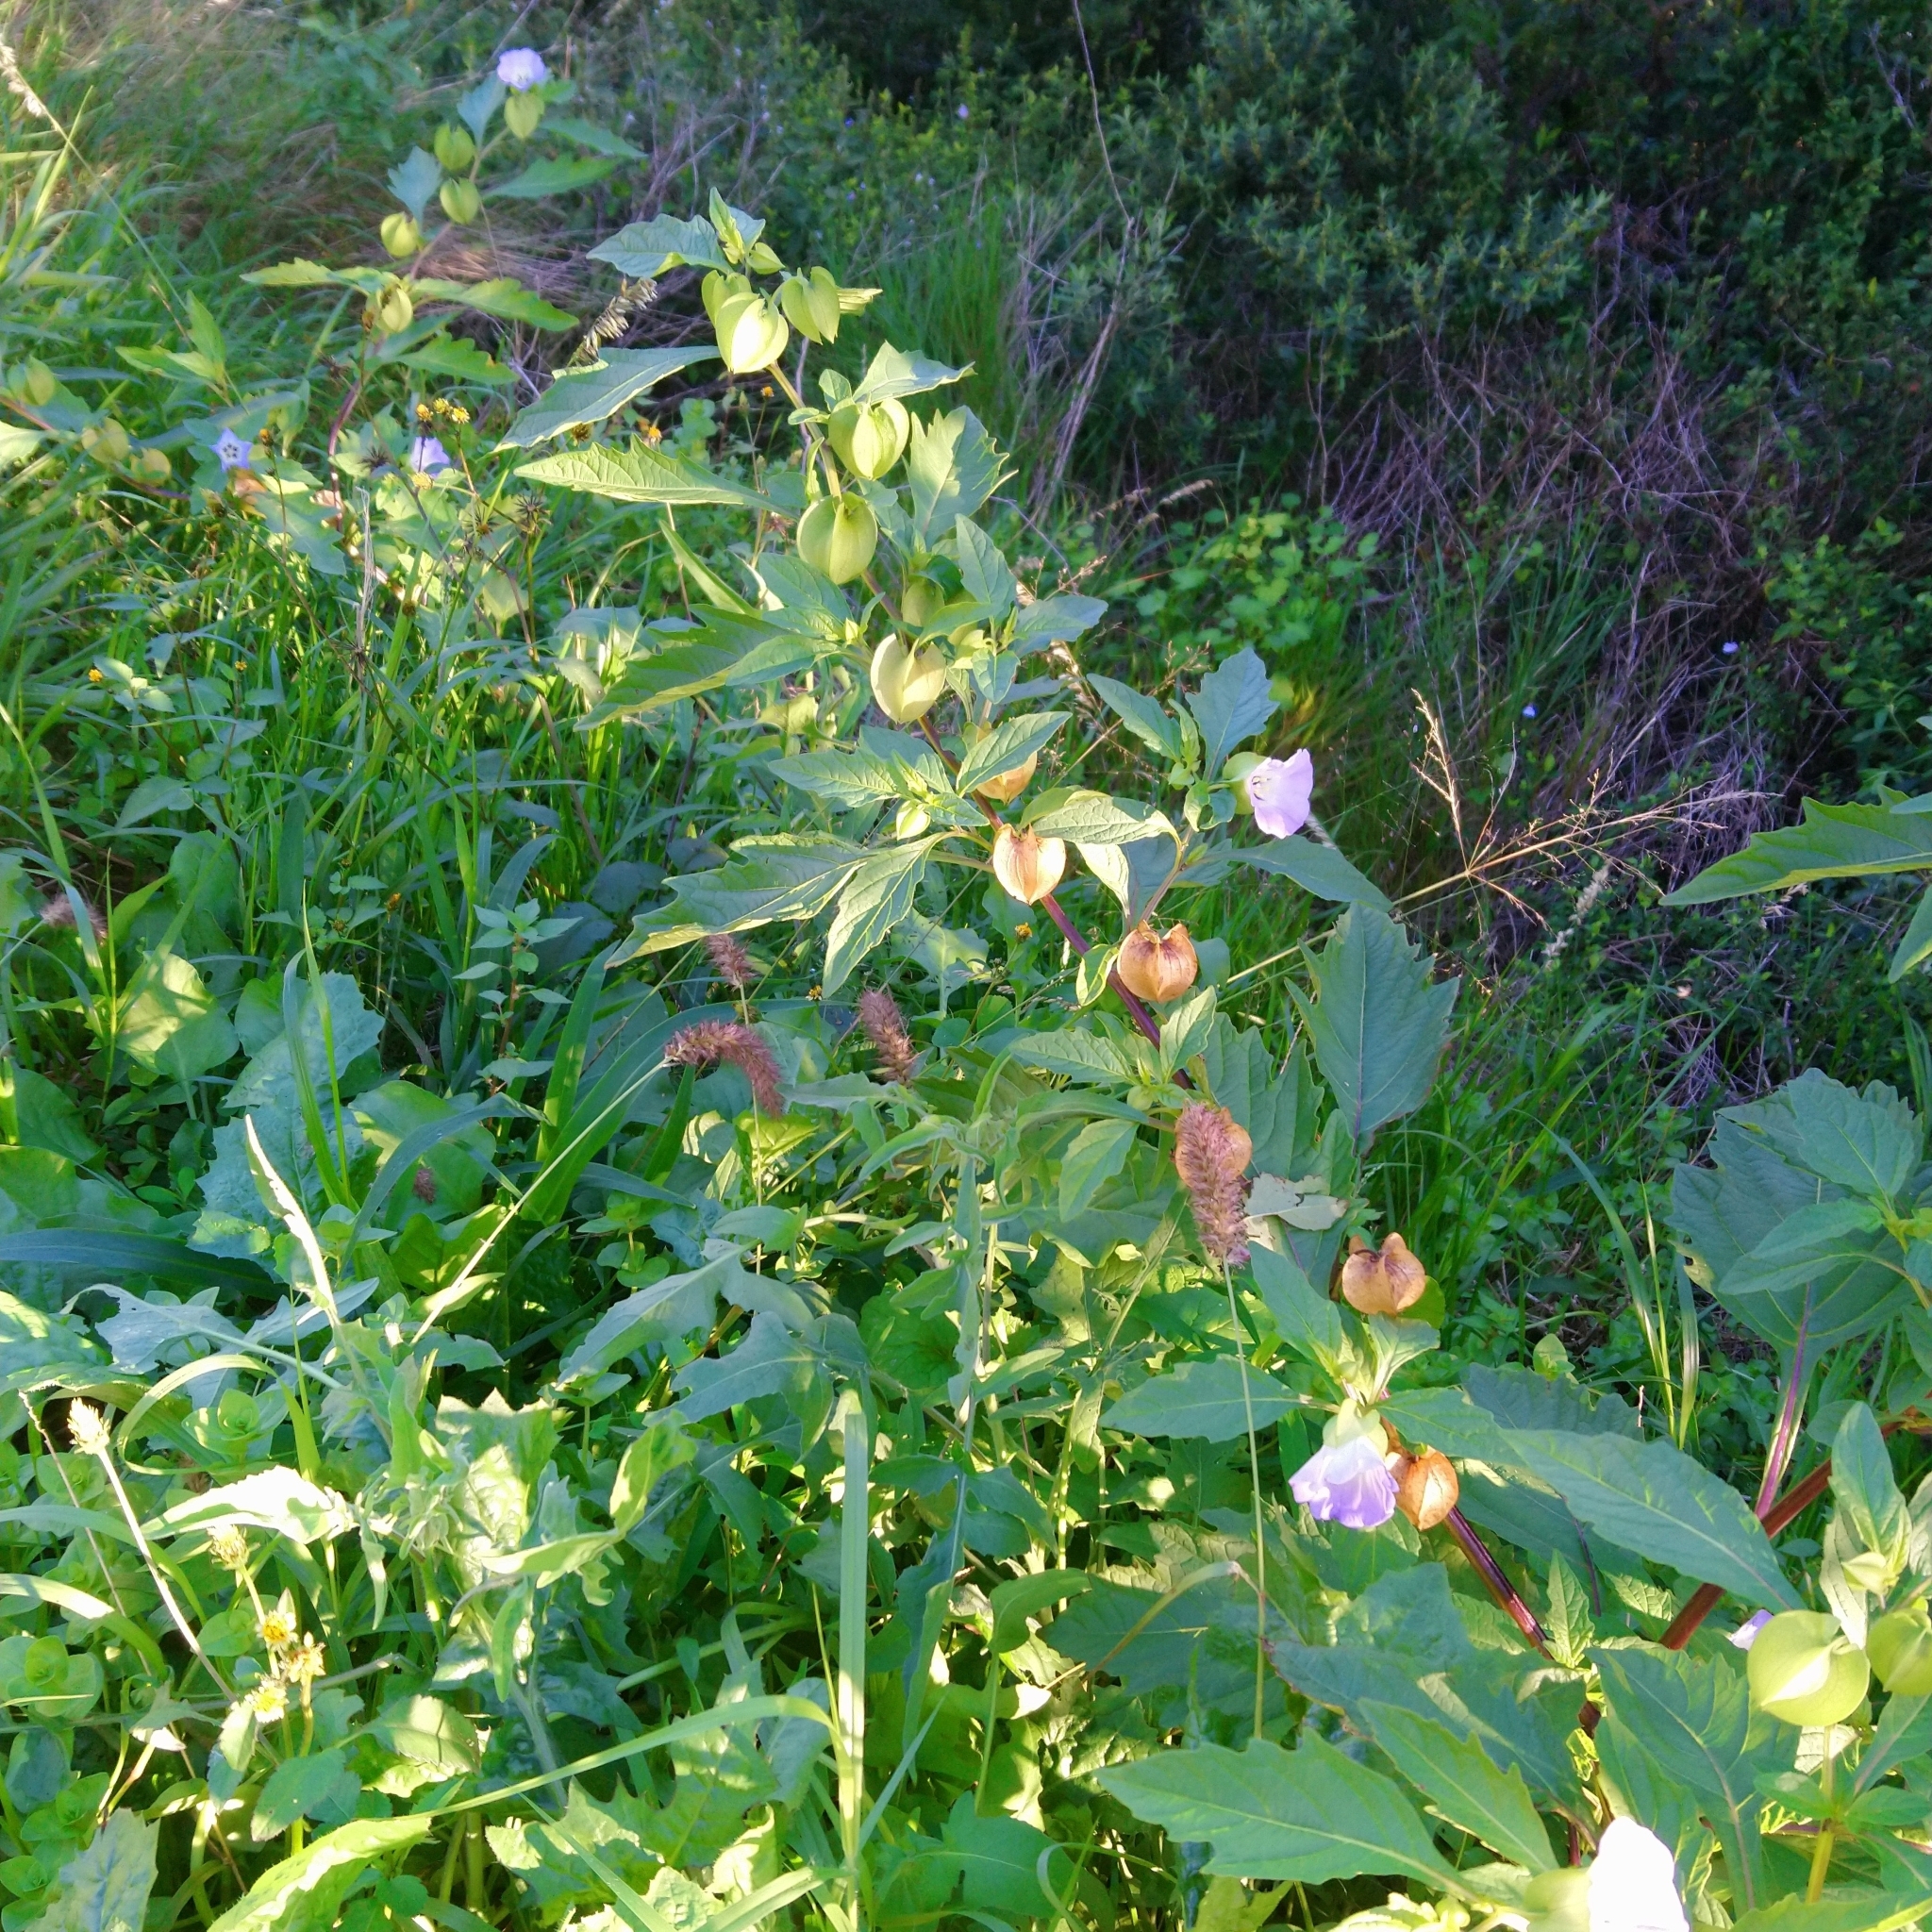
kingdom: Plantae
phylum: Tracheophyta
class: Magnoliopsida
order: Solanales
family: Solanaceae
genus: Nicandra
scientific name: Nicandra physalodes
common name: Apple-of-peru
